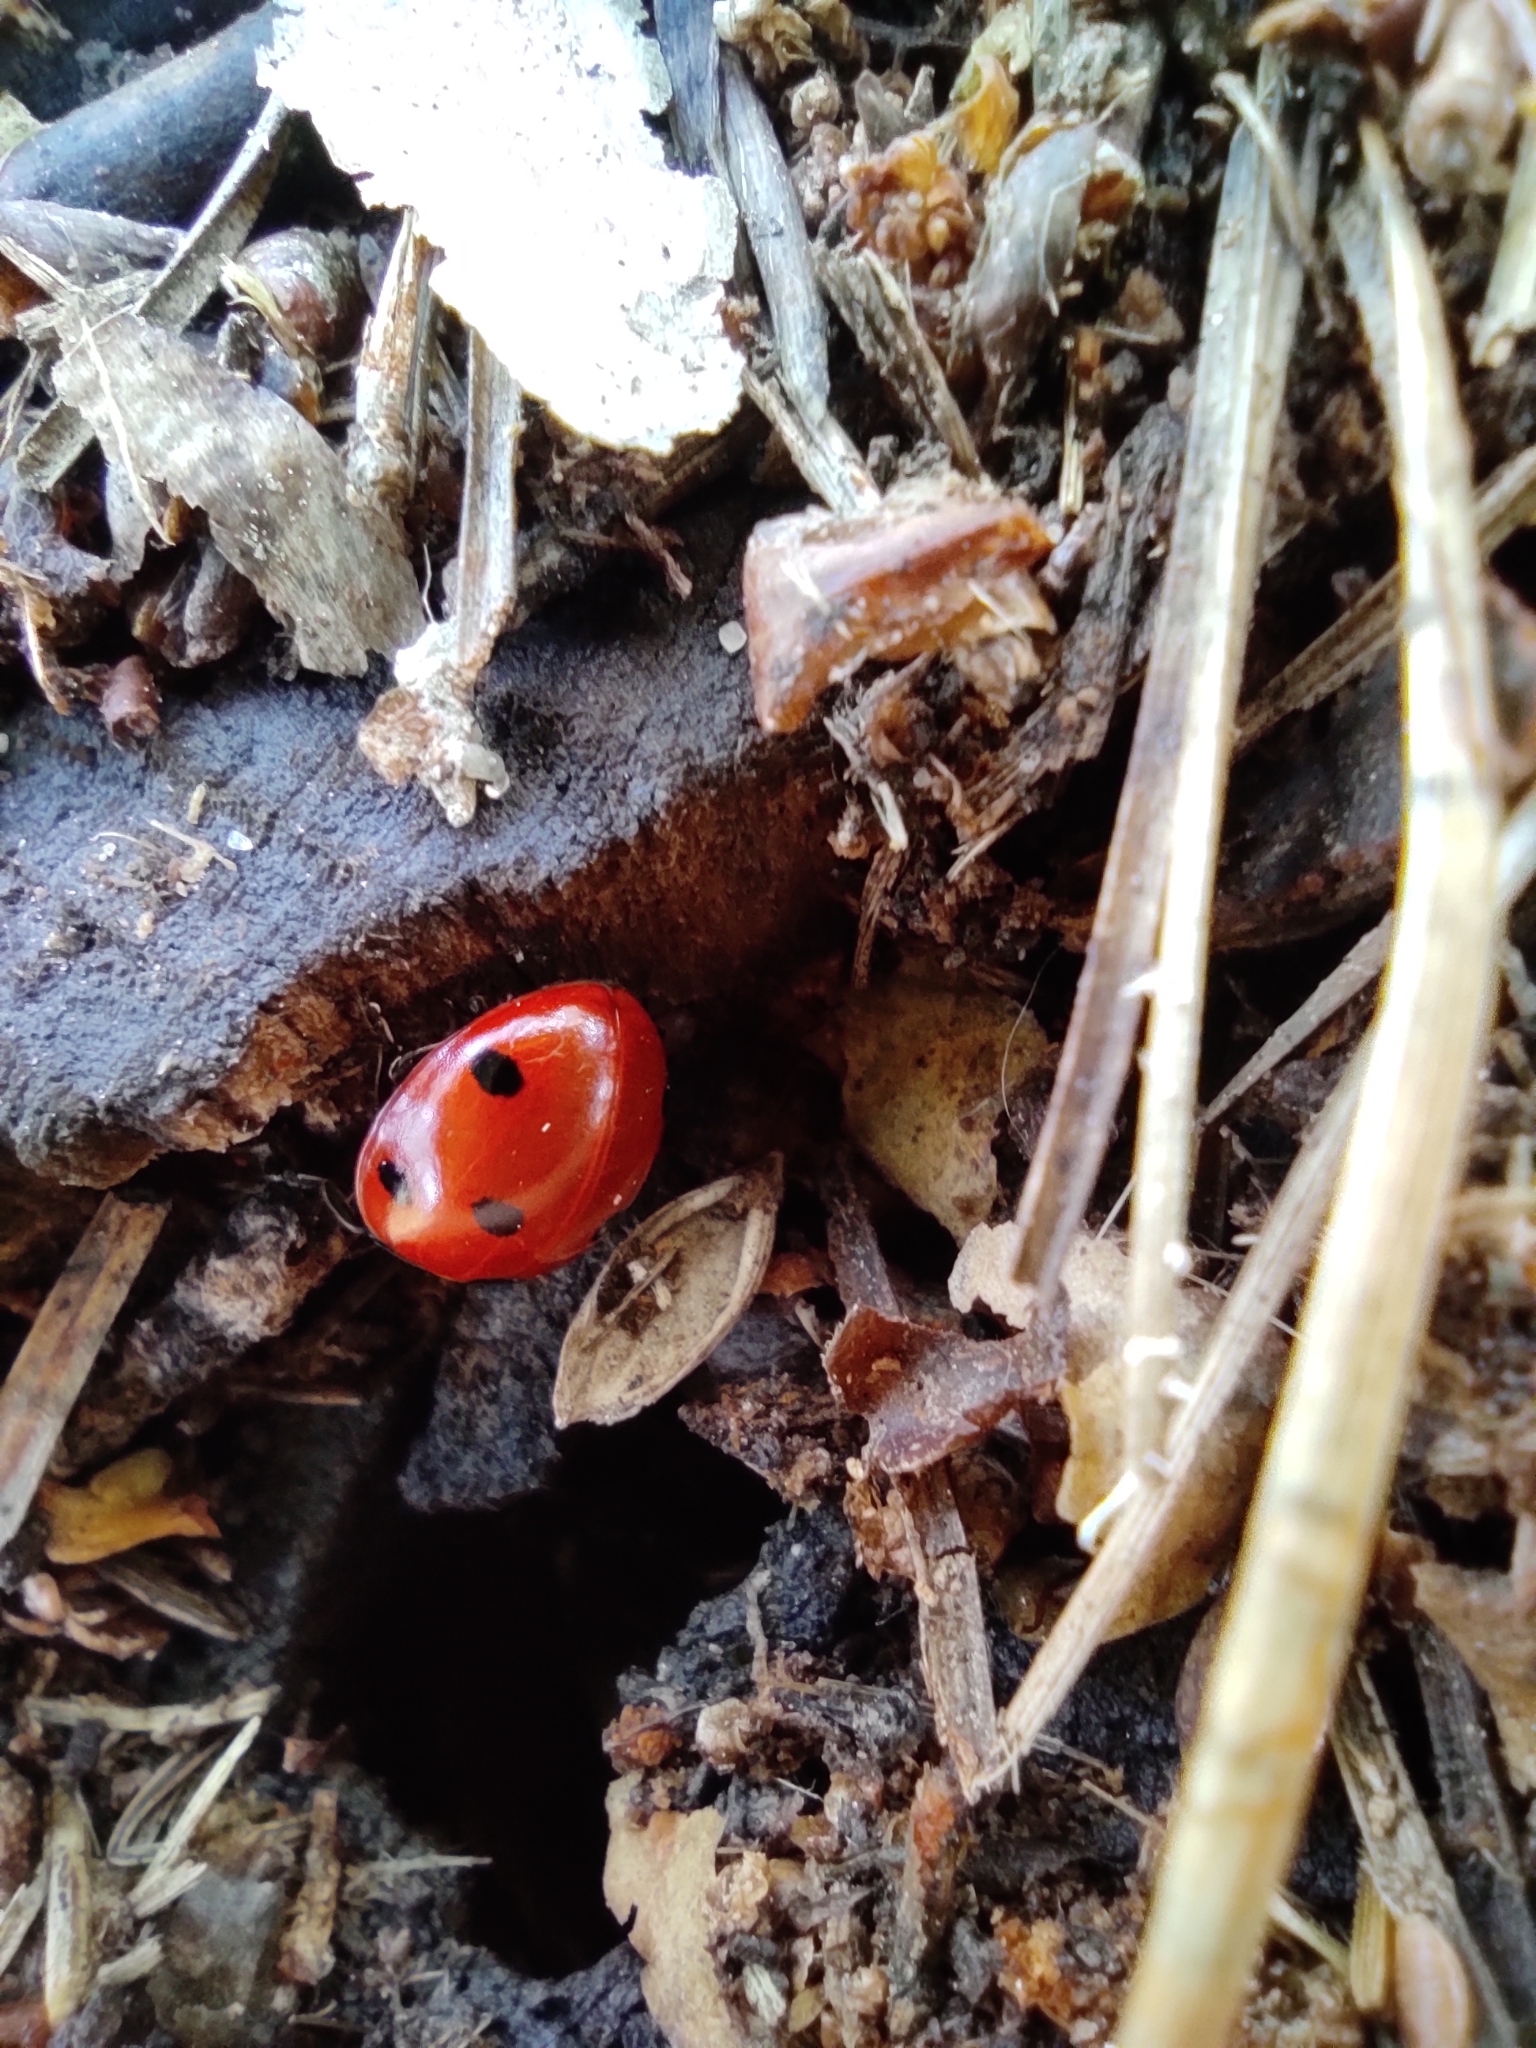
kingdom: Animalia
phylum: Arthropoda
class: Insecta
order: Coleoptera
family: Coccinellidae
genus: Coccinella
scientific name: Coccinella septempunctata
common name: Sevenspotted lady beetle
